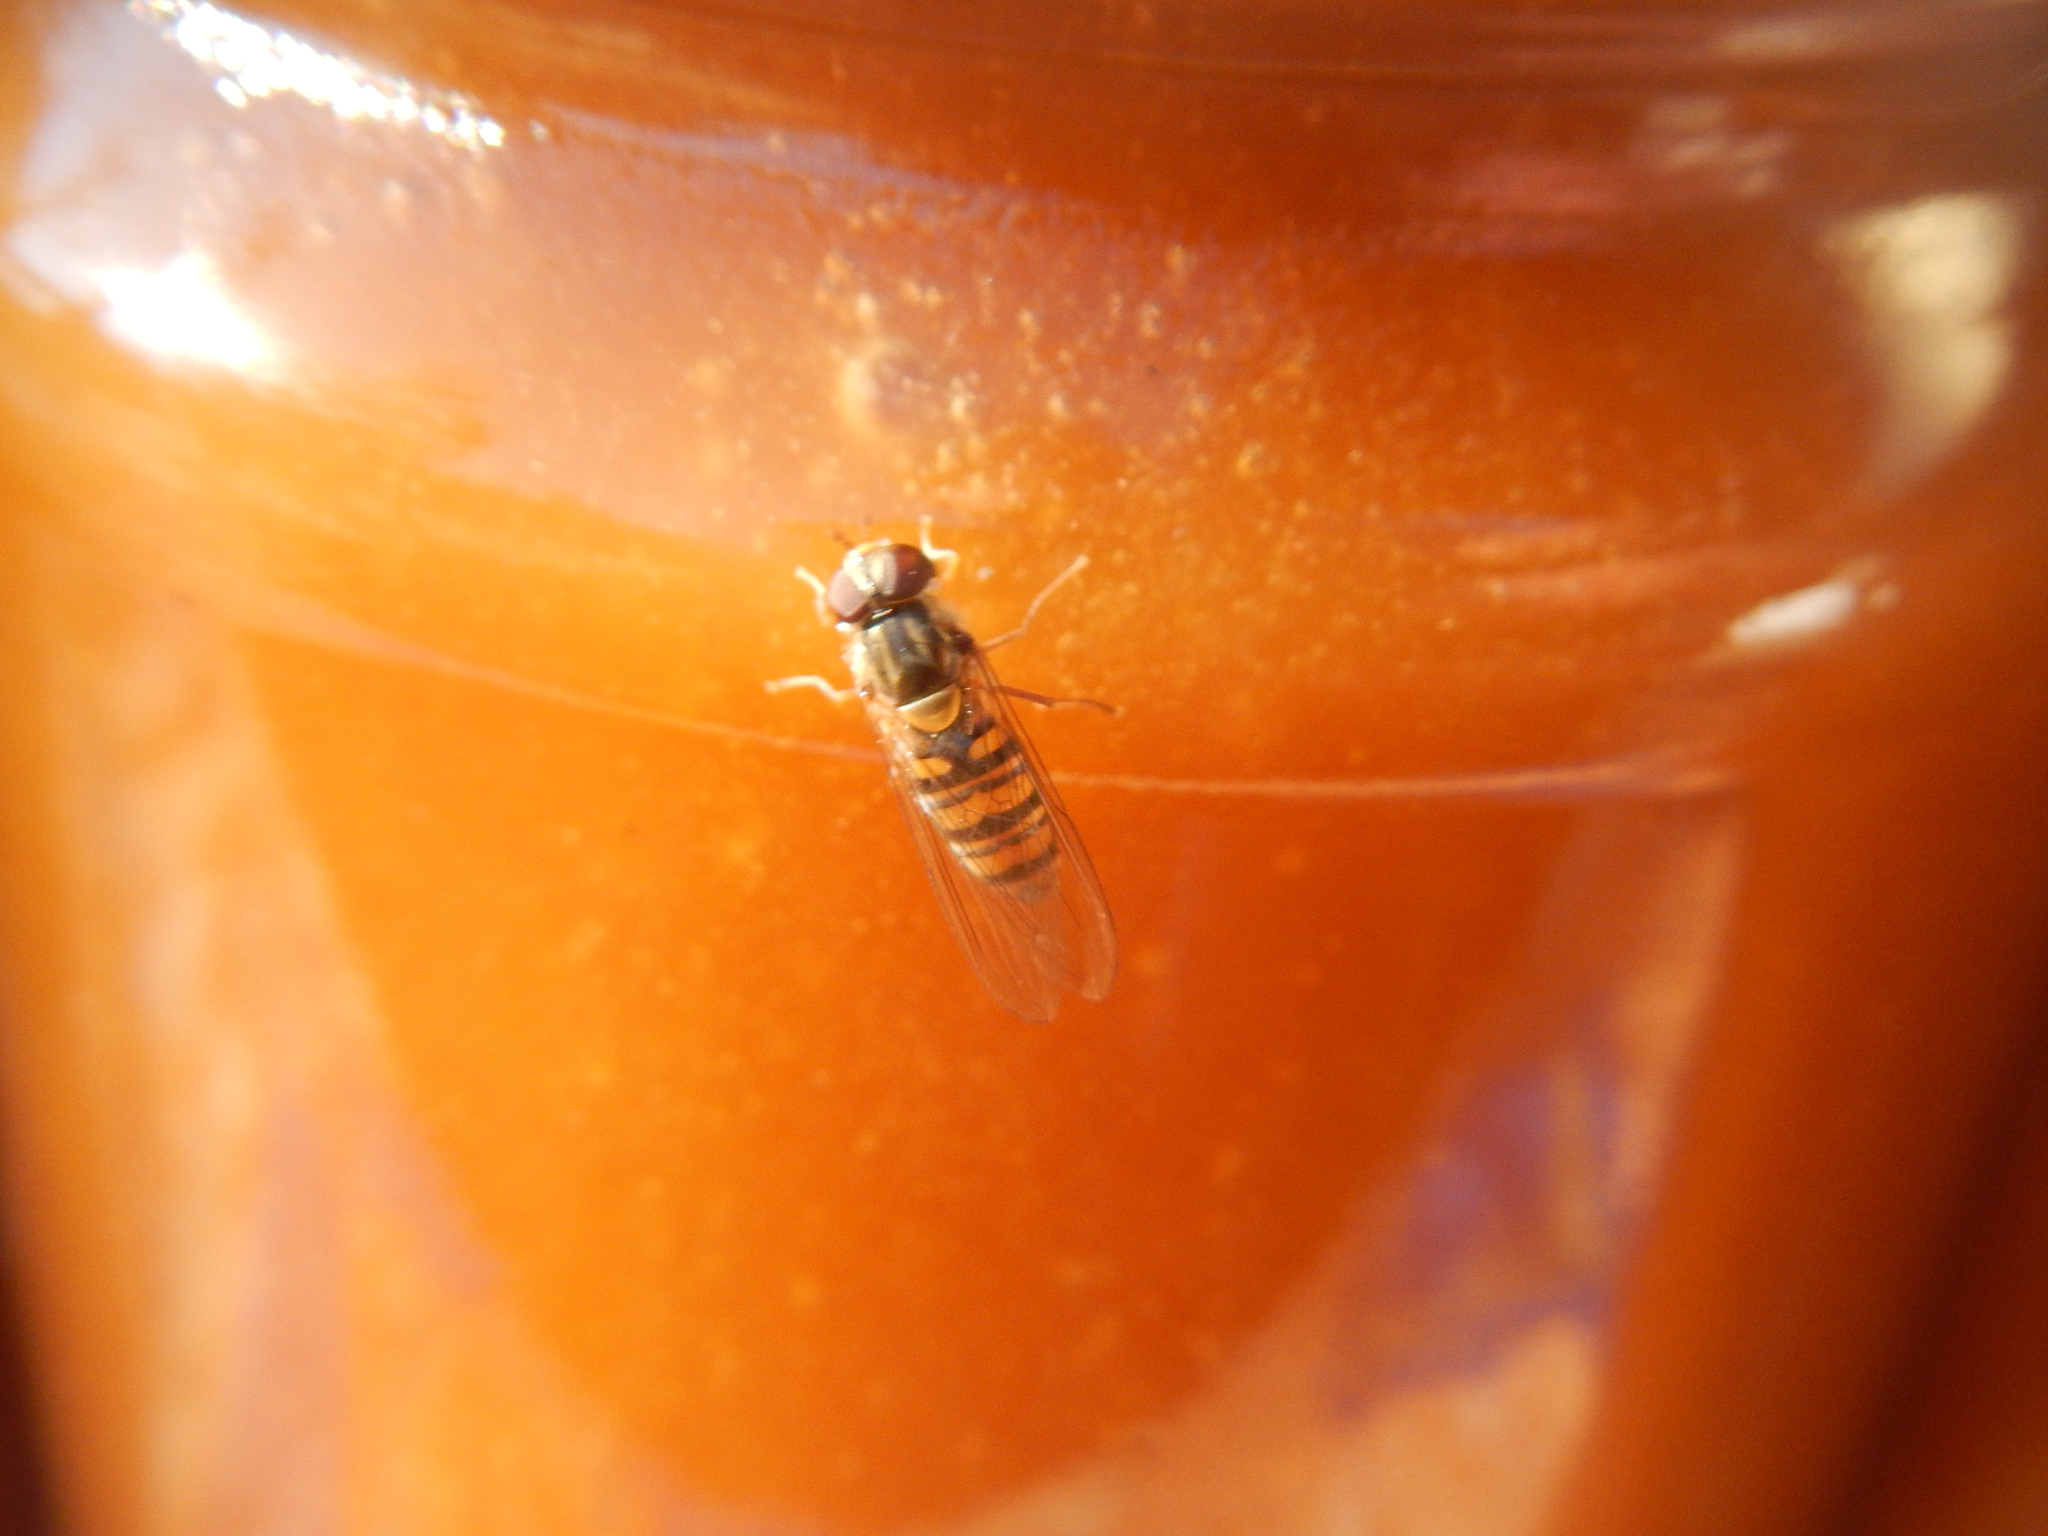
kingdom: Animalia
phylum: Arthropoda
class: Insecta
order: Diptera
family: Syrphidae
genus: Episyrphus
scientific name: Episyrphus balteatus
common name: Marmalade hoverfly
